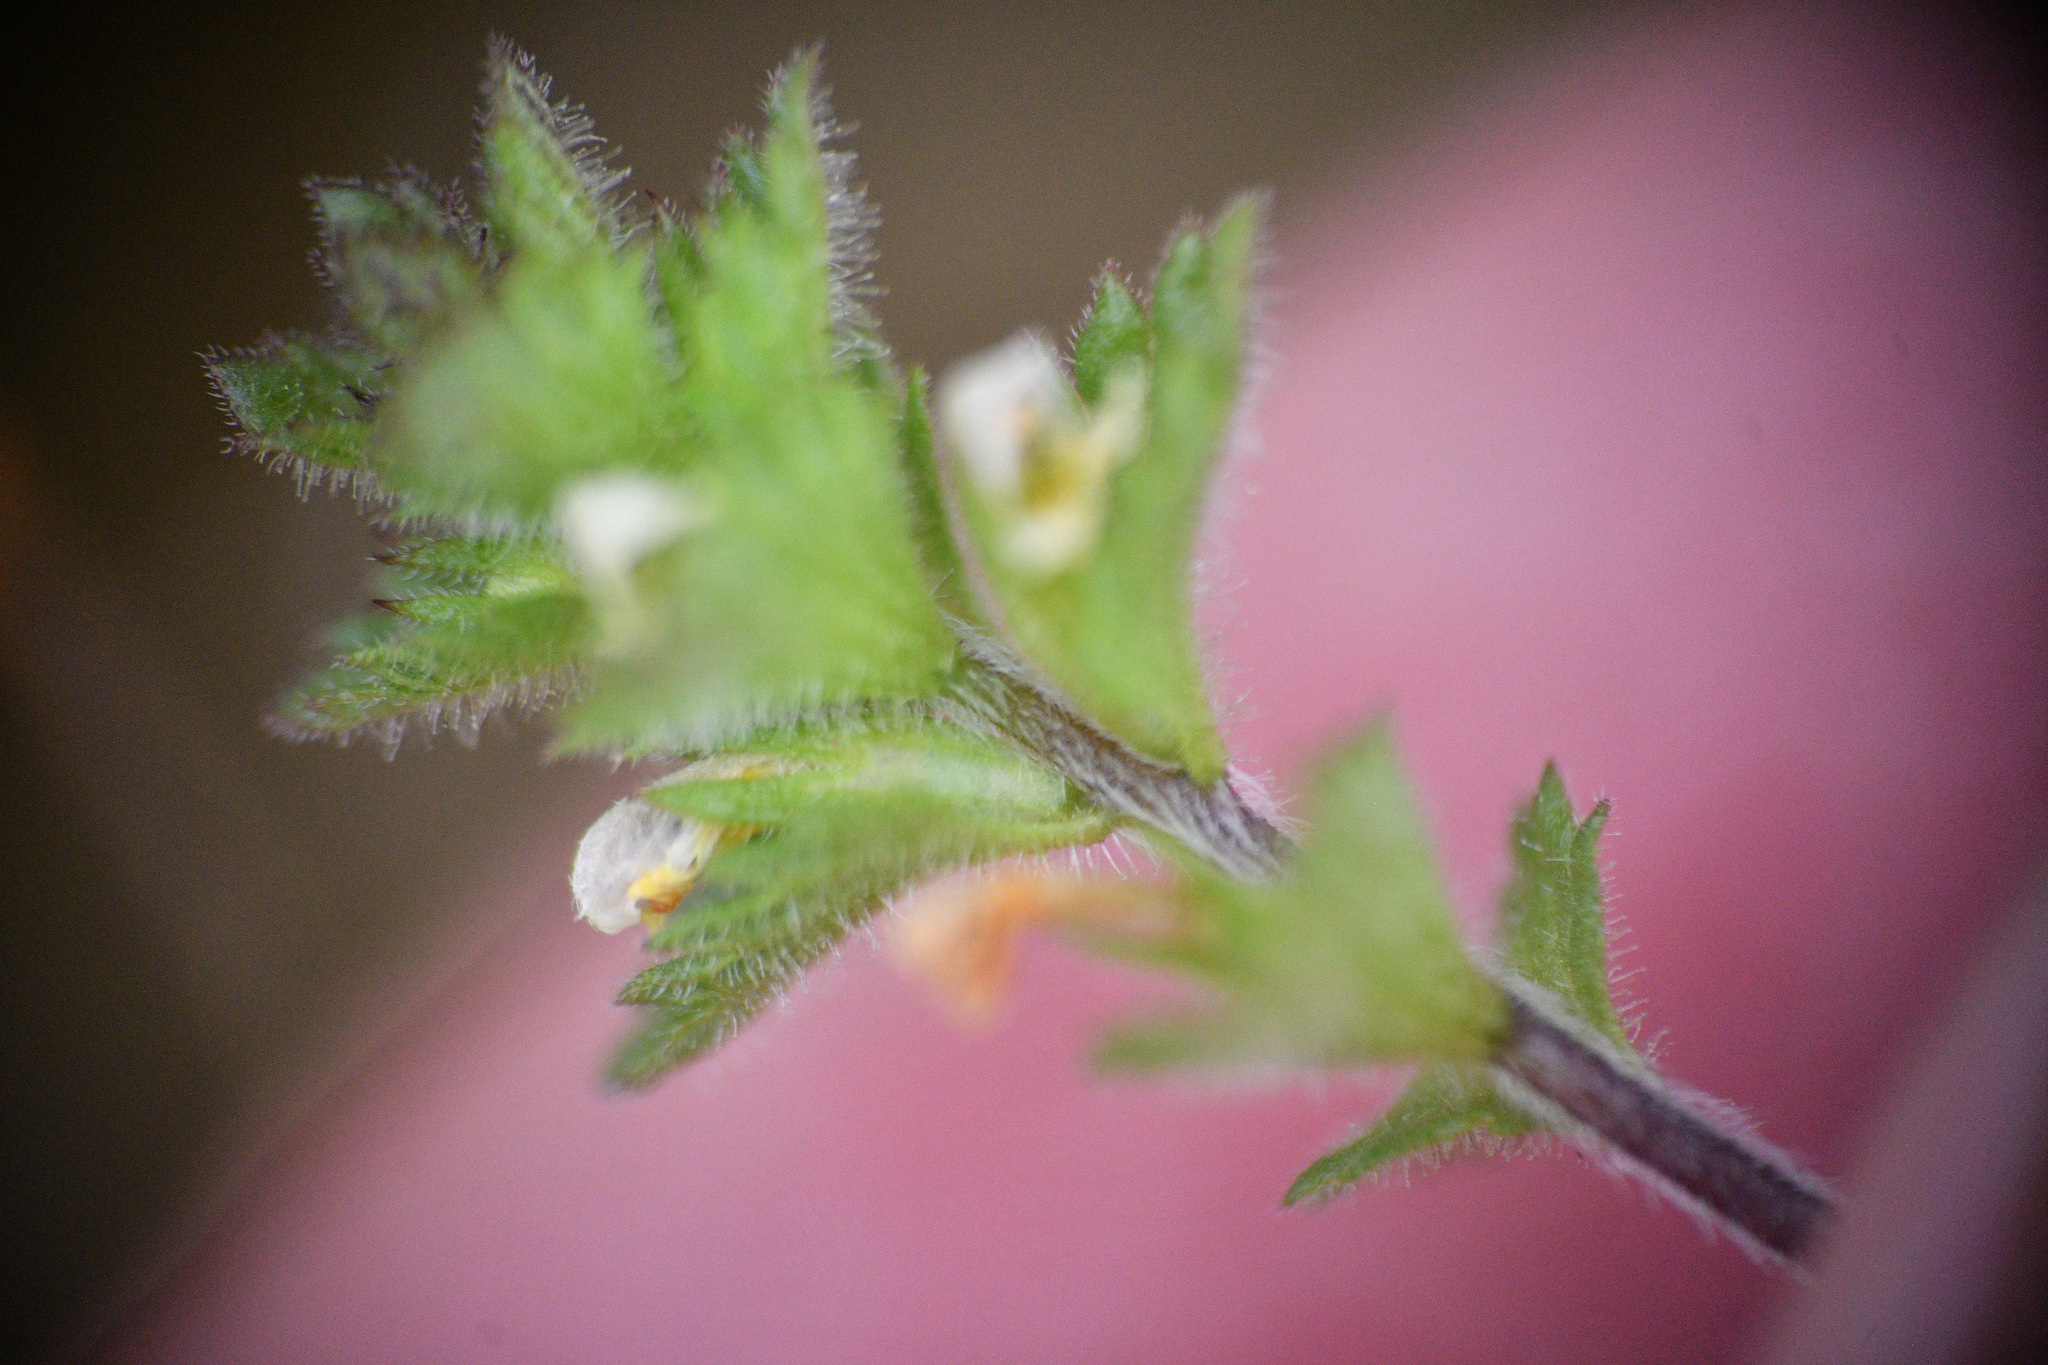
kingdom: Plantae
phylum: Tracheophyta
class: Magnoliopsida
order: Lamiales
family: Orobanchaceae
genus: Euphrasia
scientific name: Euphrasia subarctica
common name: Subarctic eyebright
